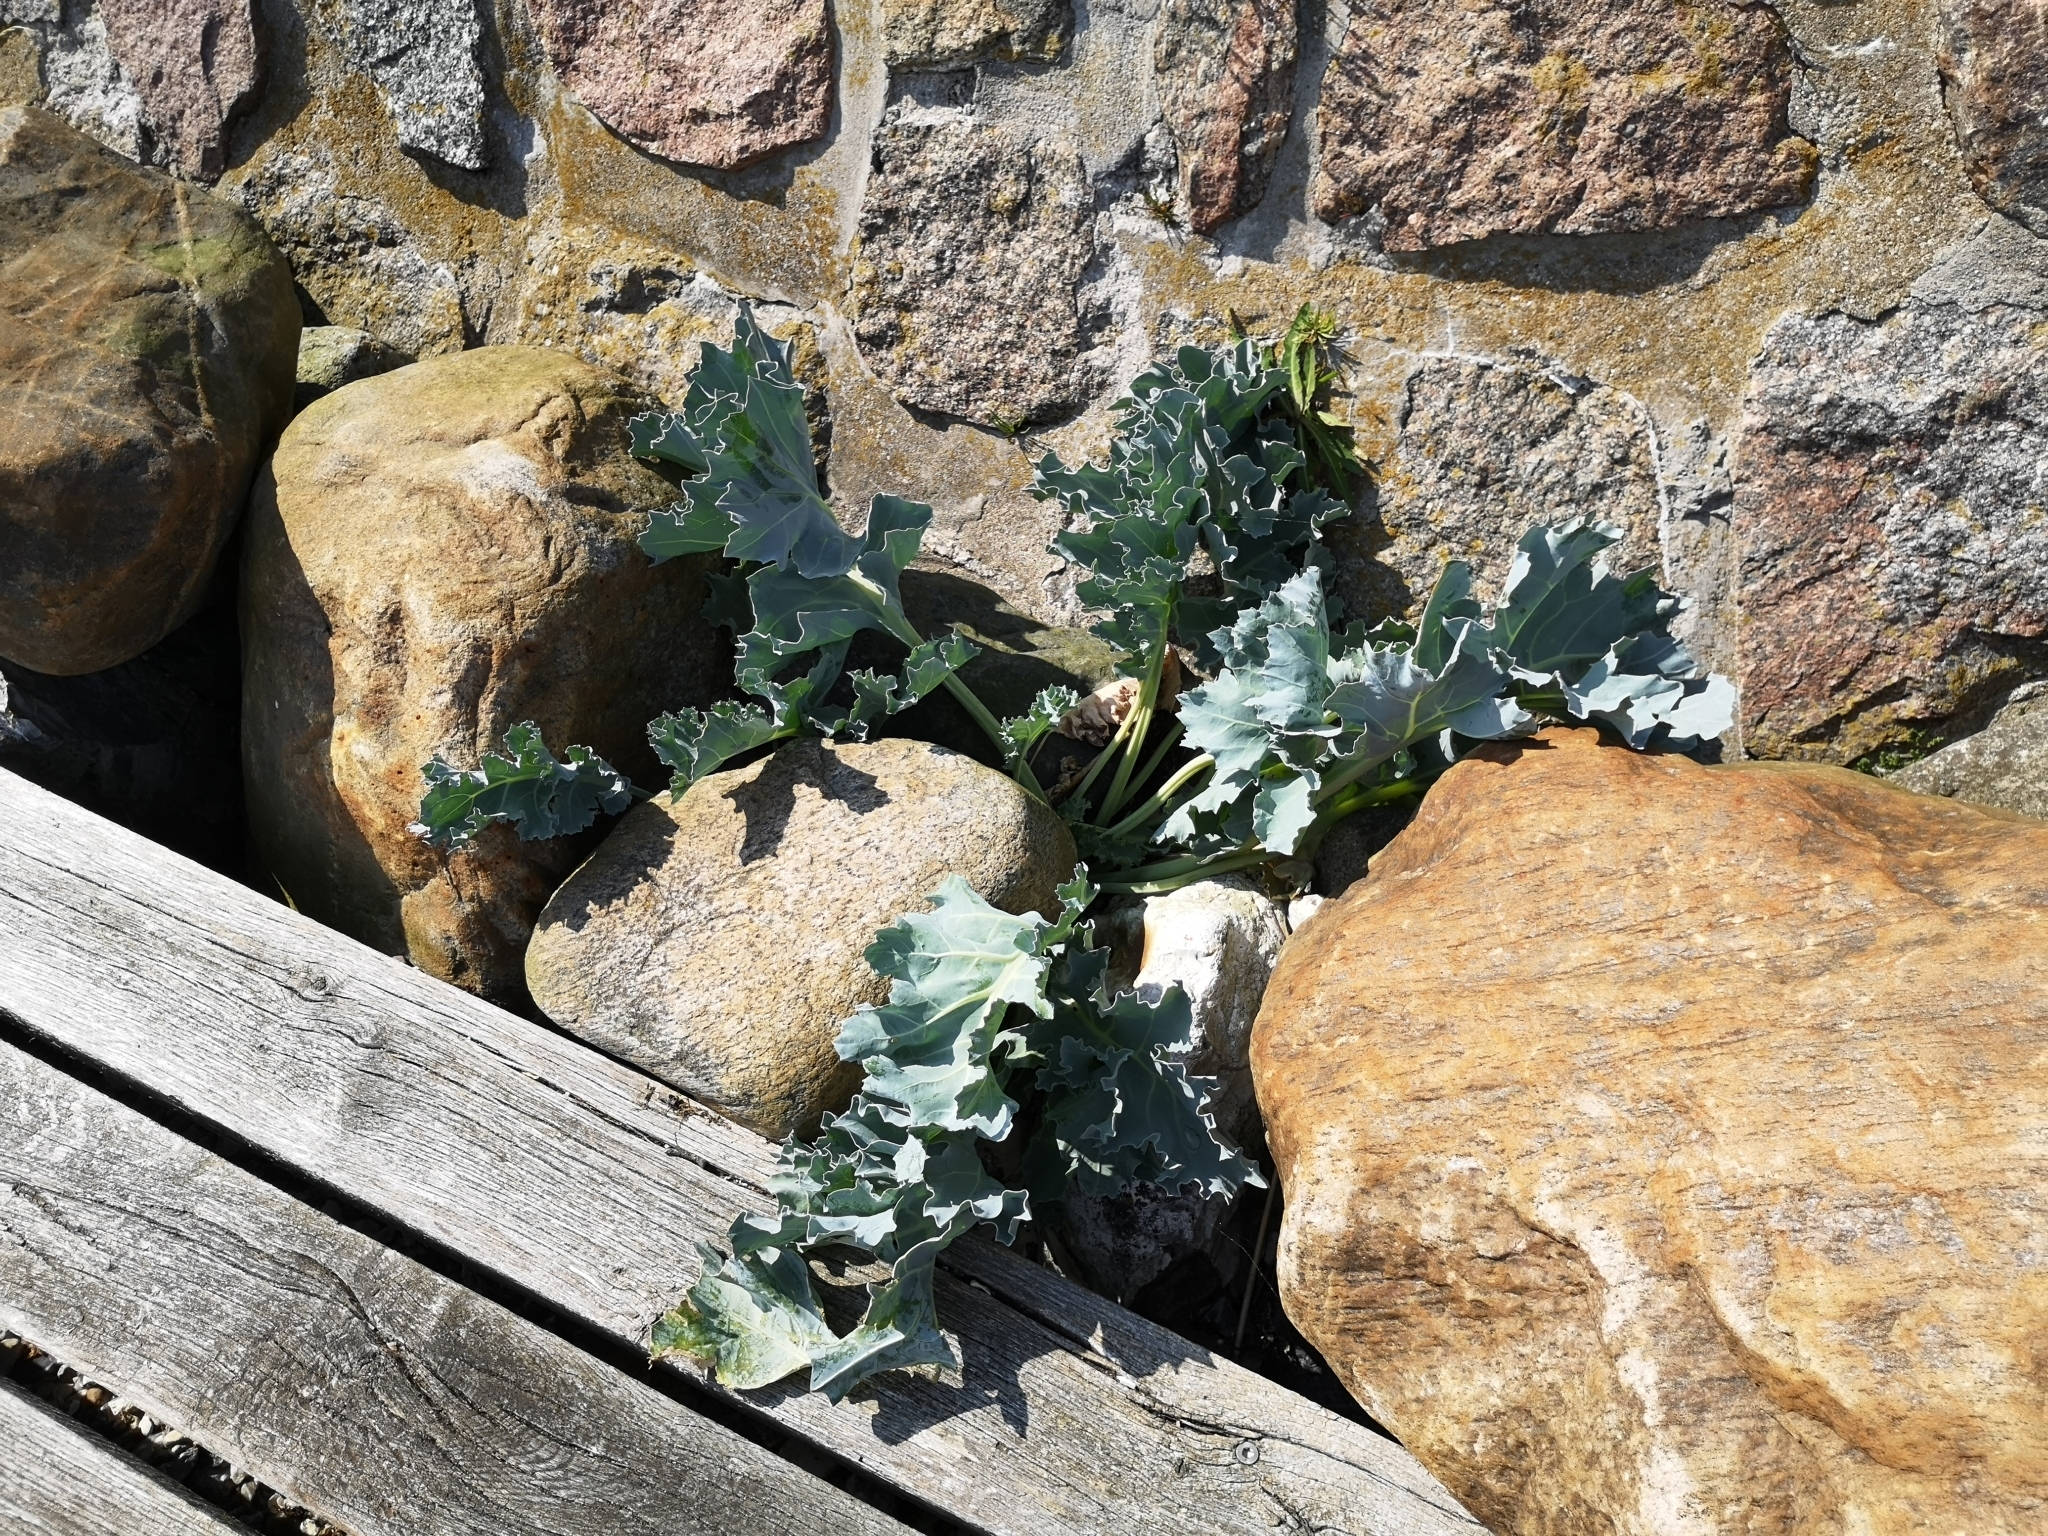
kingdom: Plantae
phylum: Tracheophyta
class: Magnoliopsida
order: Brassicales
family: Brassicaceae
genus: Crambe
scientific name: Crambe maritima
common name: Sea-kale
